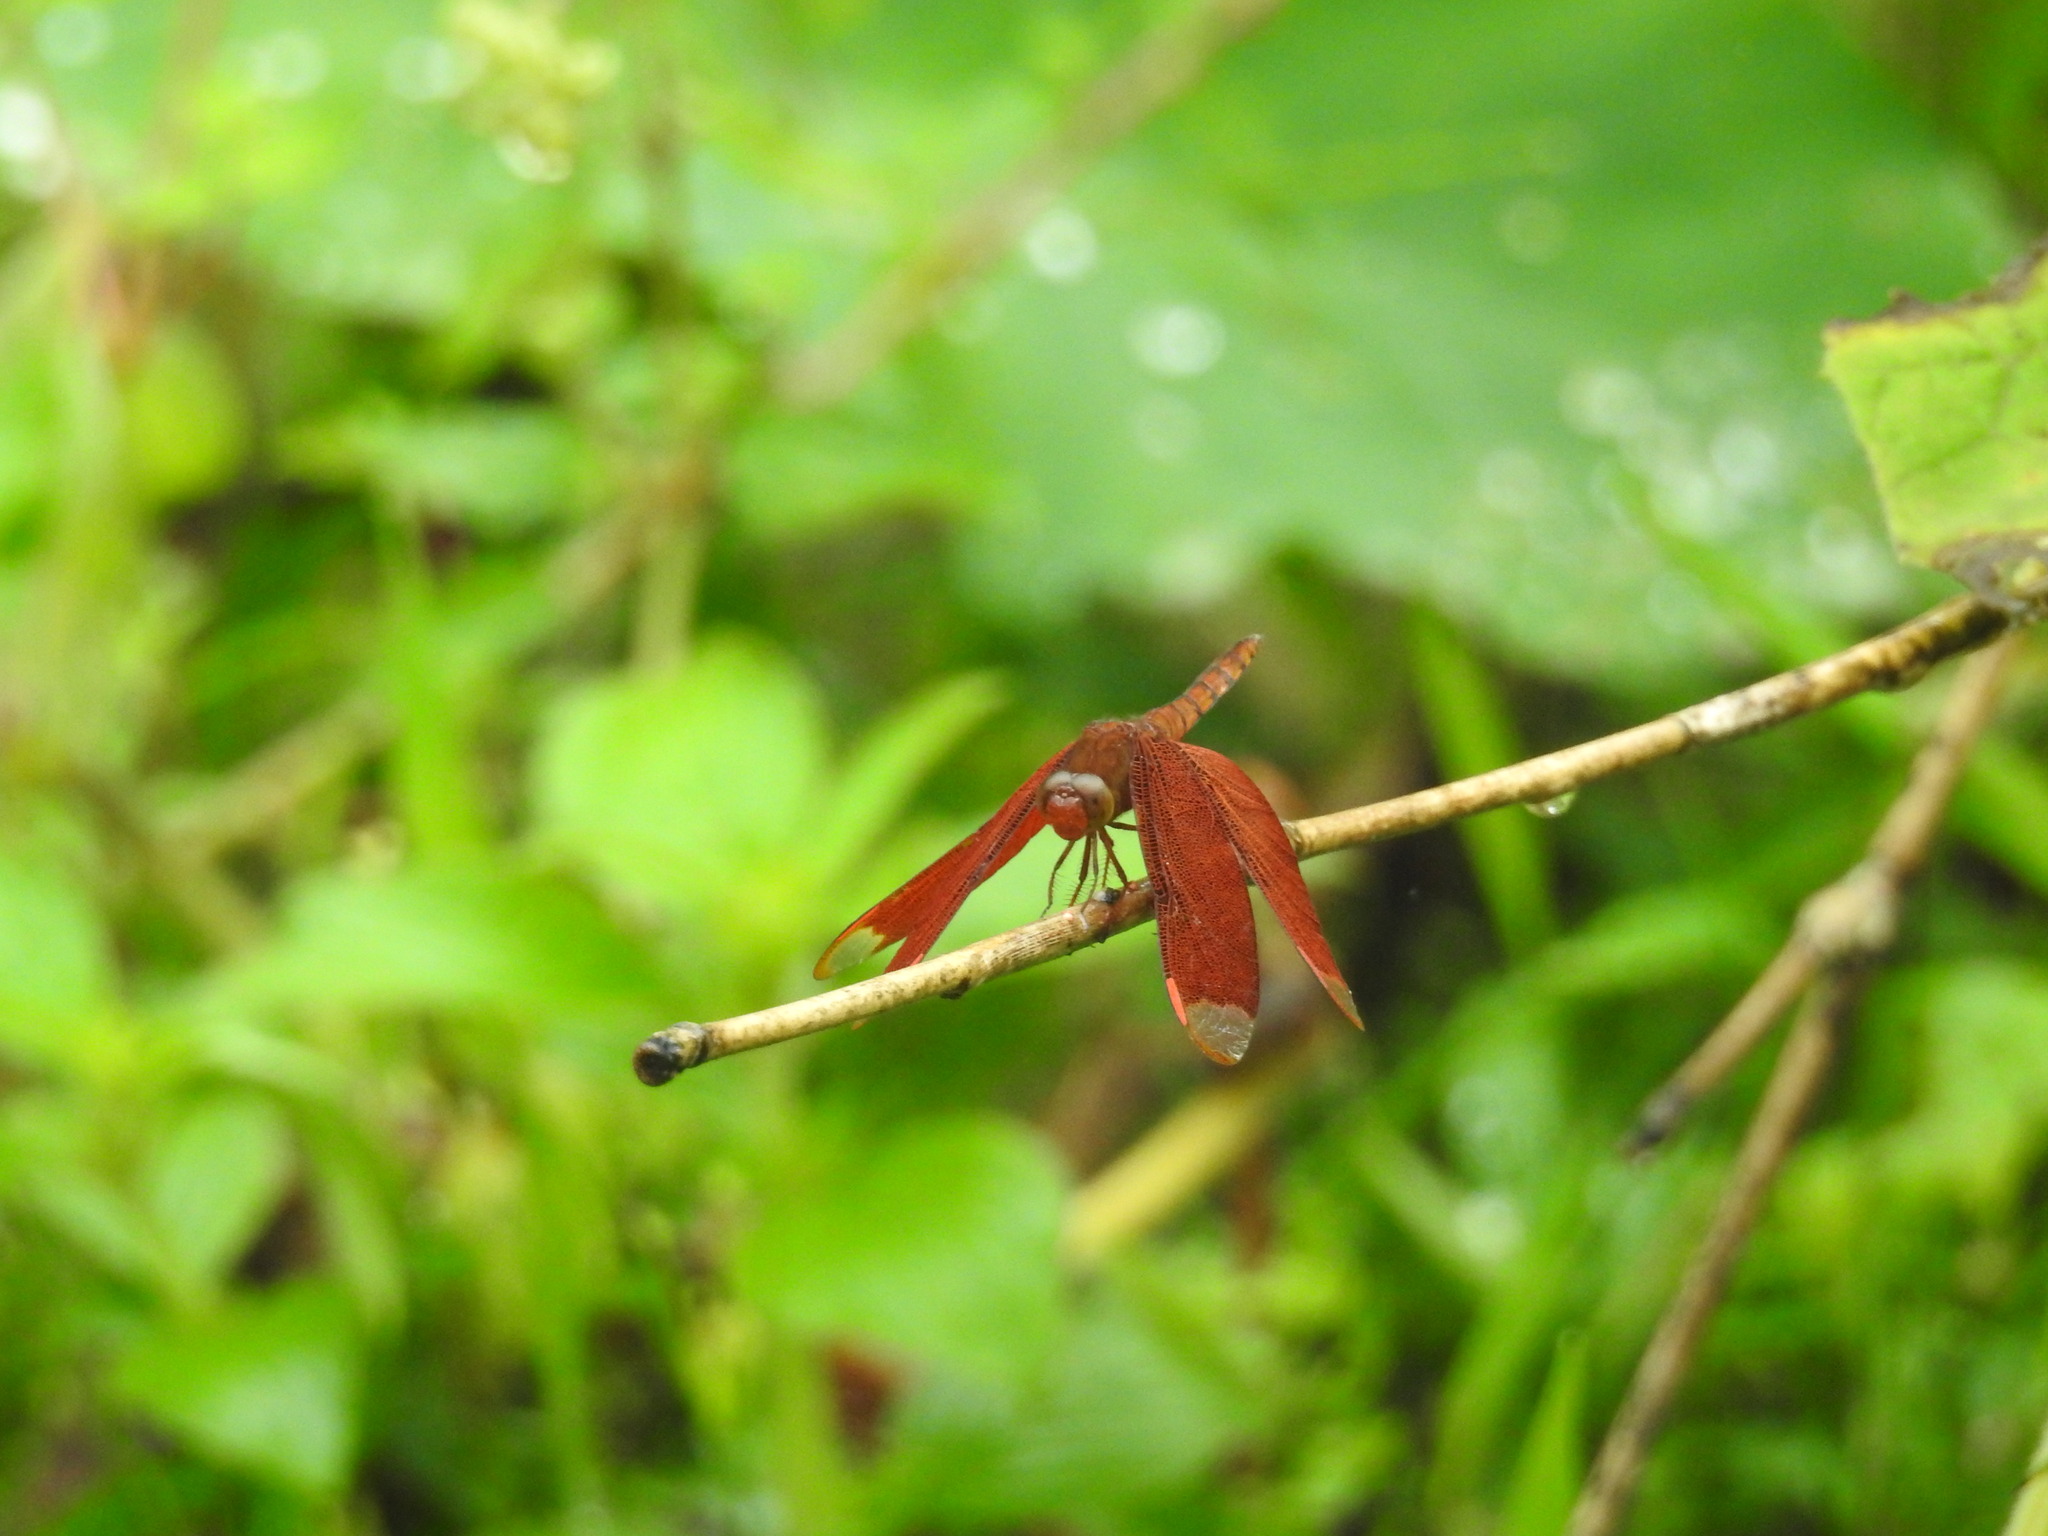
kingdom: Animalia
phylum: Arthropoda
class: Insecta
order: Odonata
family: Libellulidae
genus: Neurothemis
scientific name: Neurothemis fulvia
